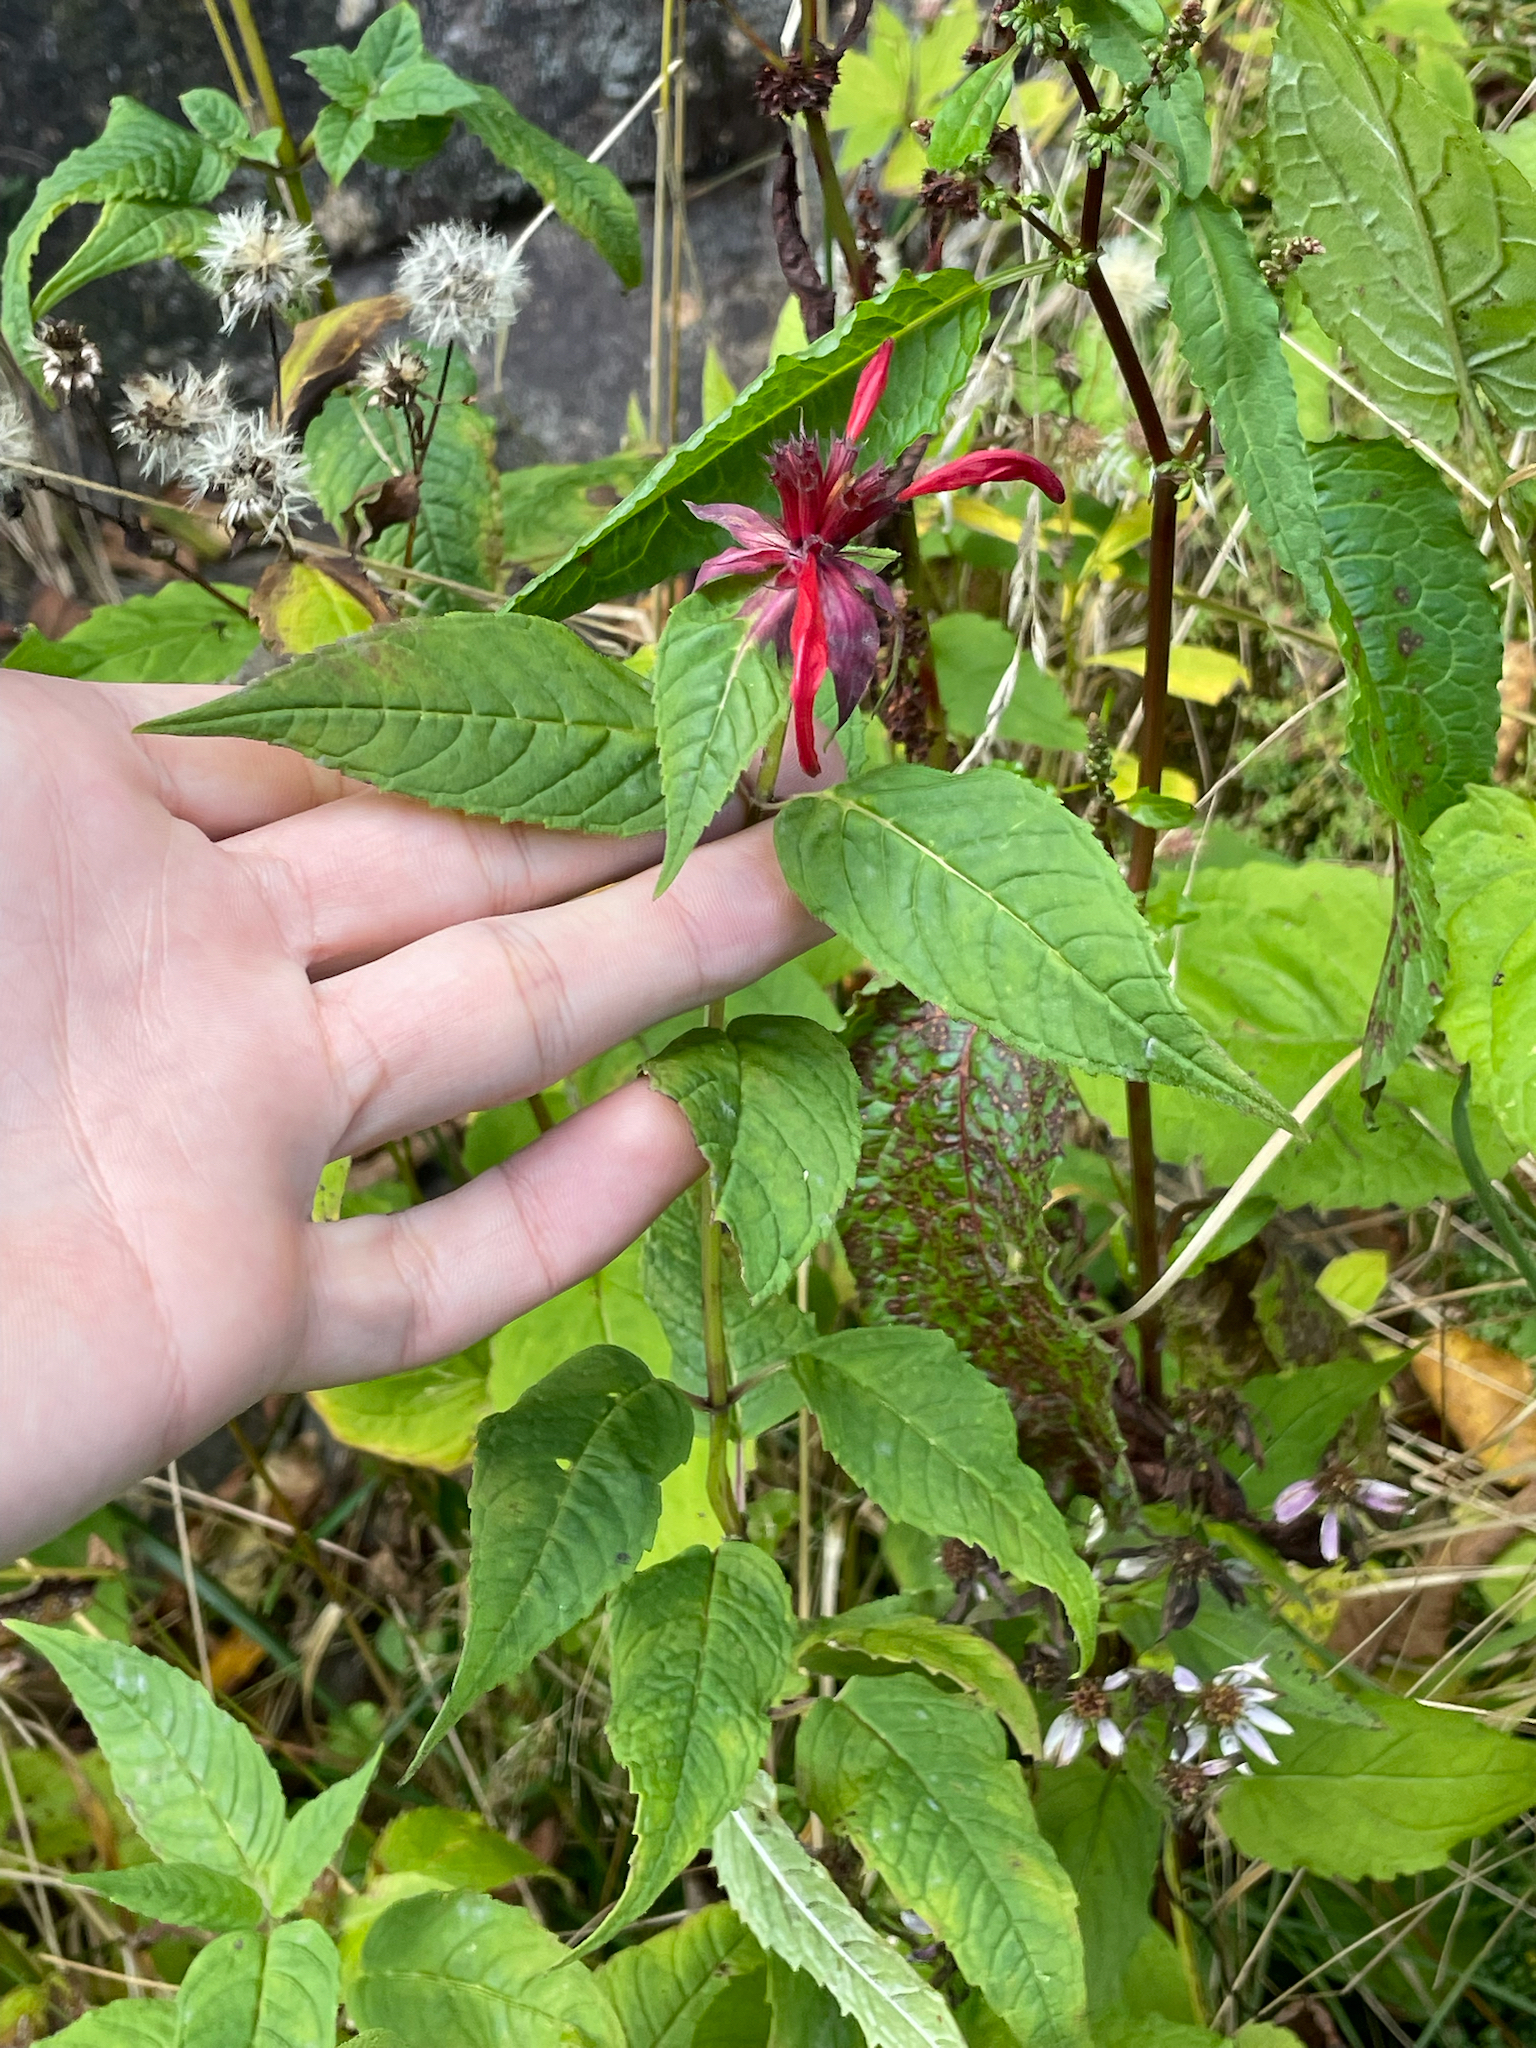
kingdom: Plantae
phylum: Tracheophyta
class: Magnoliopsida
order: Lamiales
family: Lamiaceae
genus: Monarda
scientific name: Monarda didyma
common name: Beebalm
